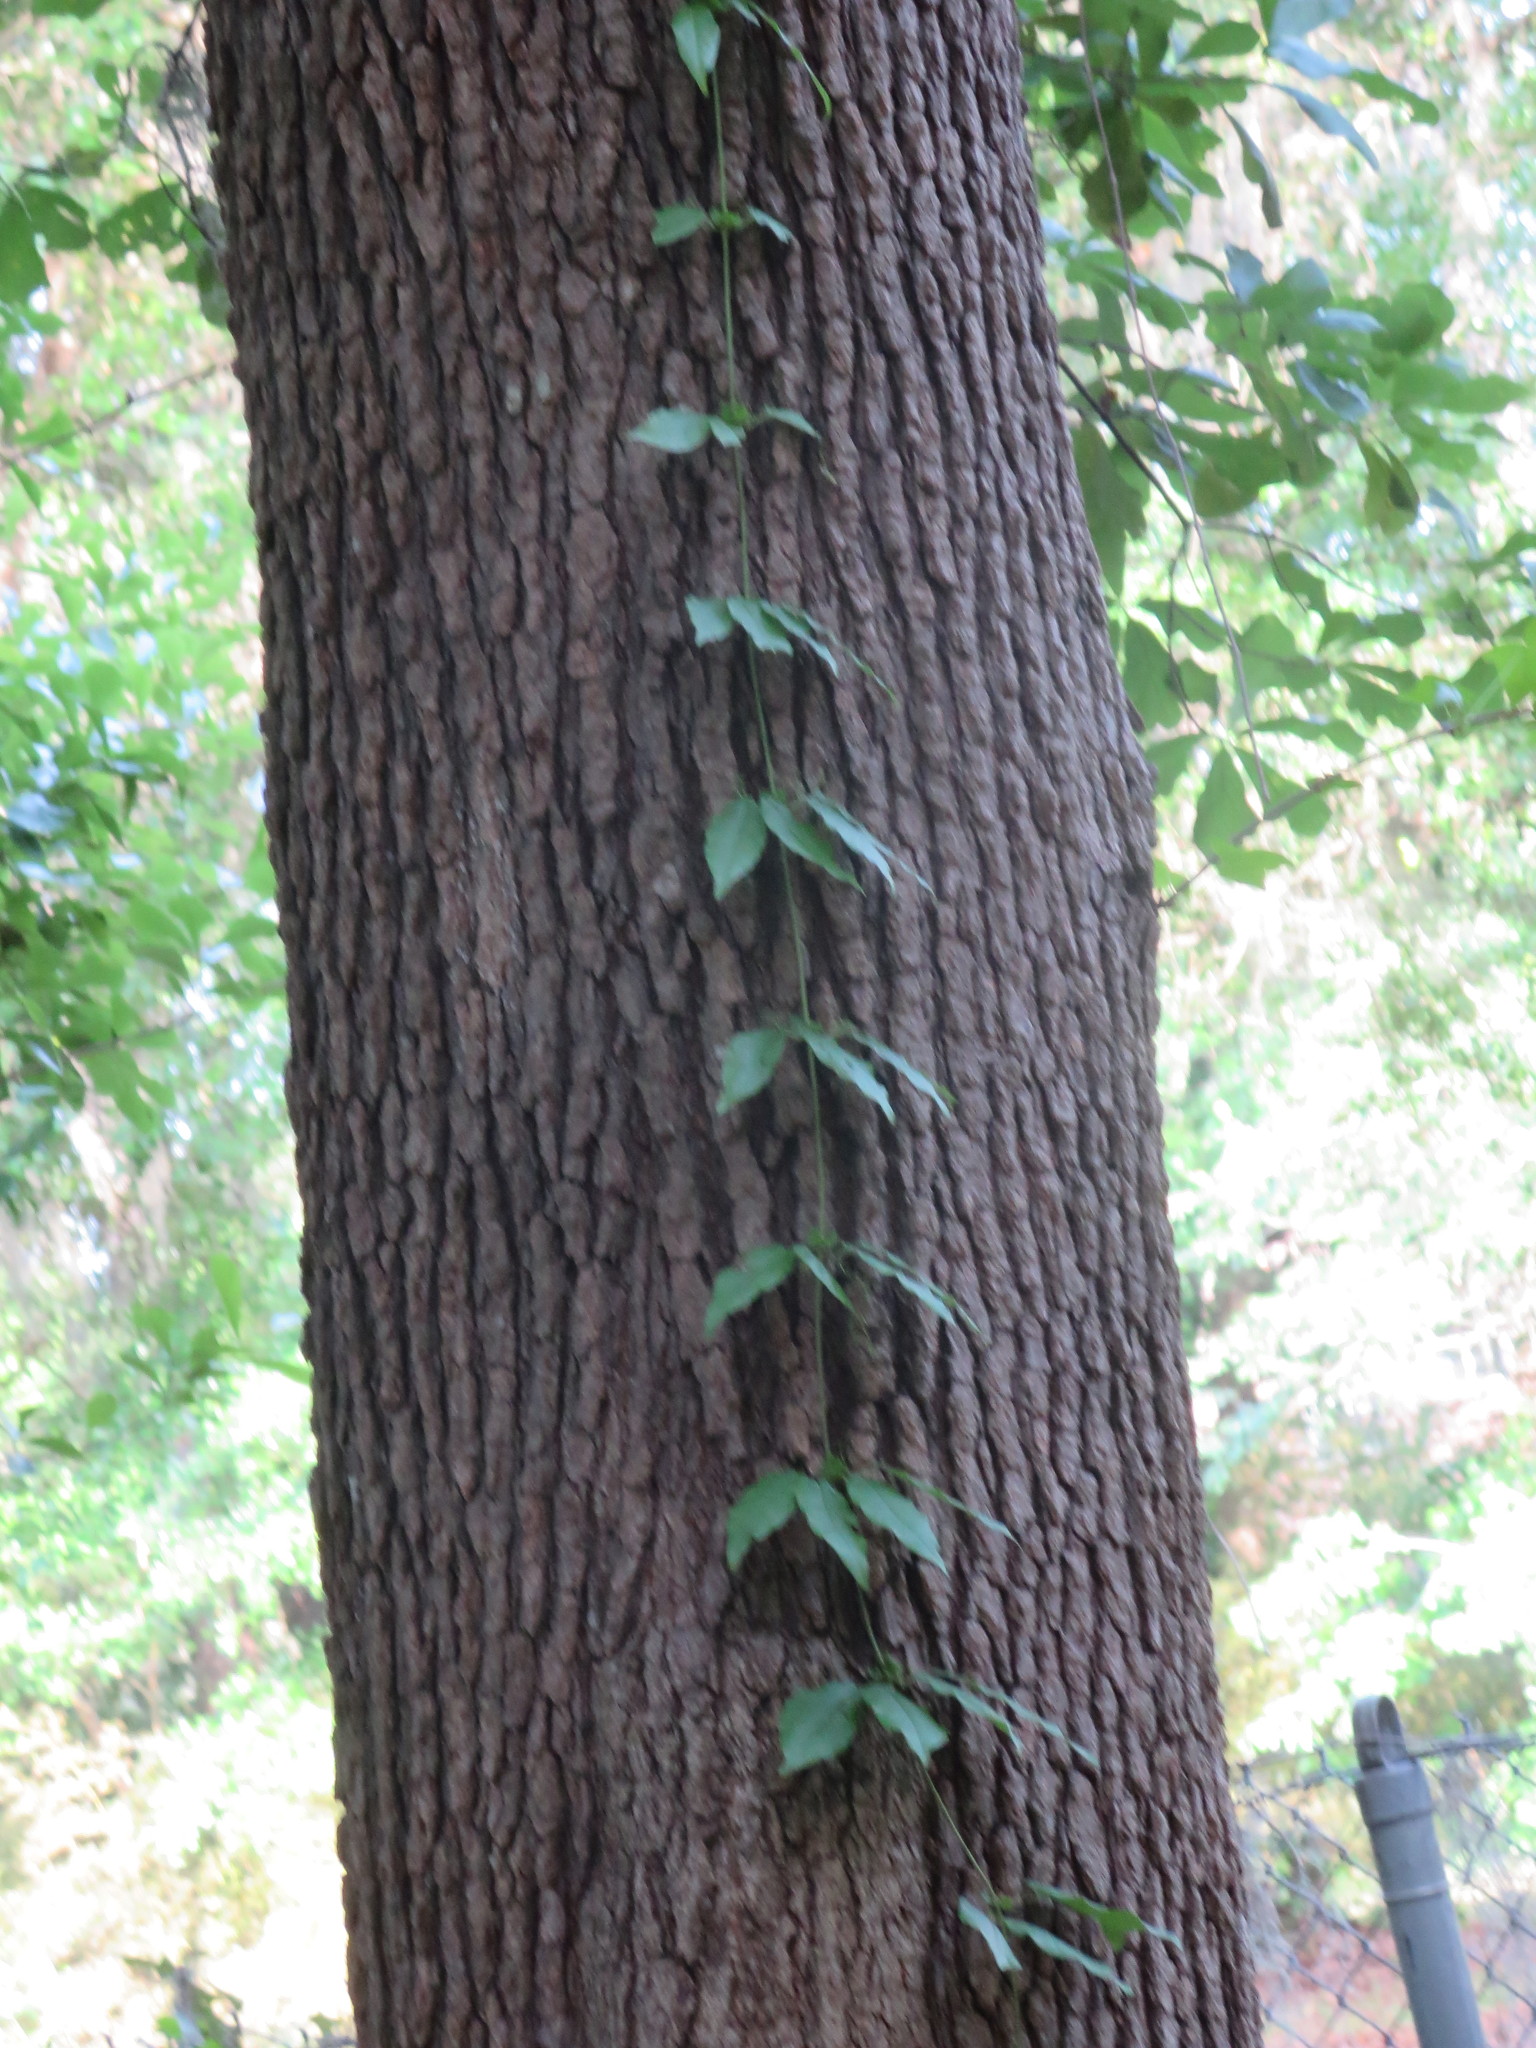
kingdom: Plantae
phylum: Tracheophyta
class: Magnoliopsida
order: Lamiales
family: Bignoniaceae
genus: Bignonia
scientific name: Bignonia capreolata
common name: Crossvine
